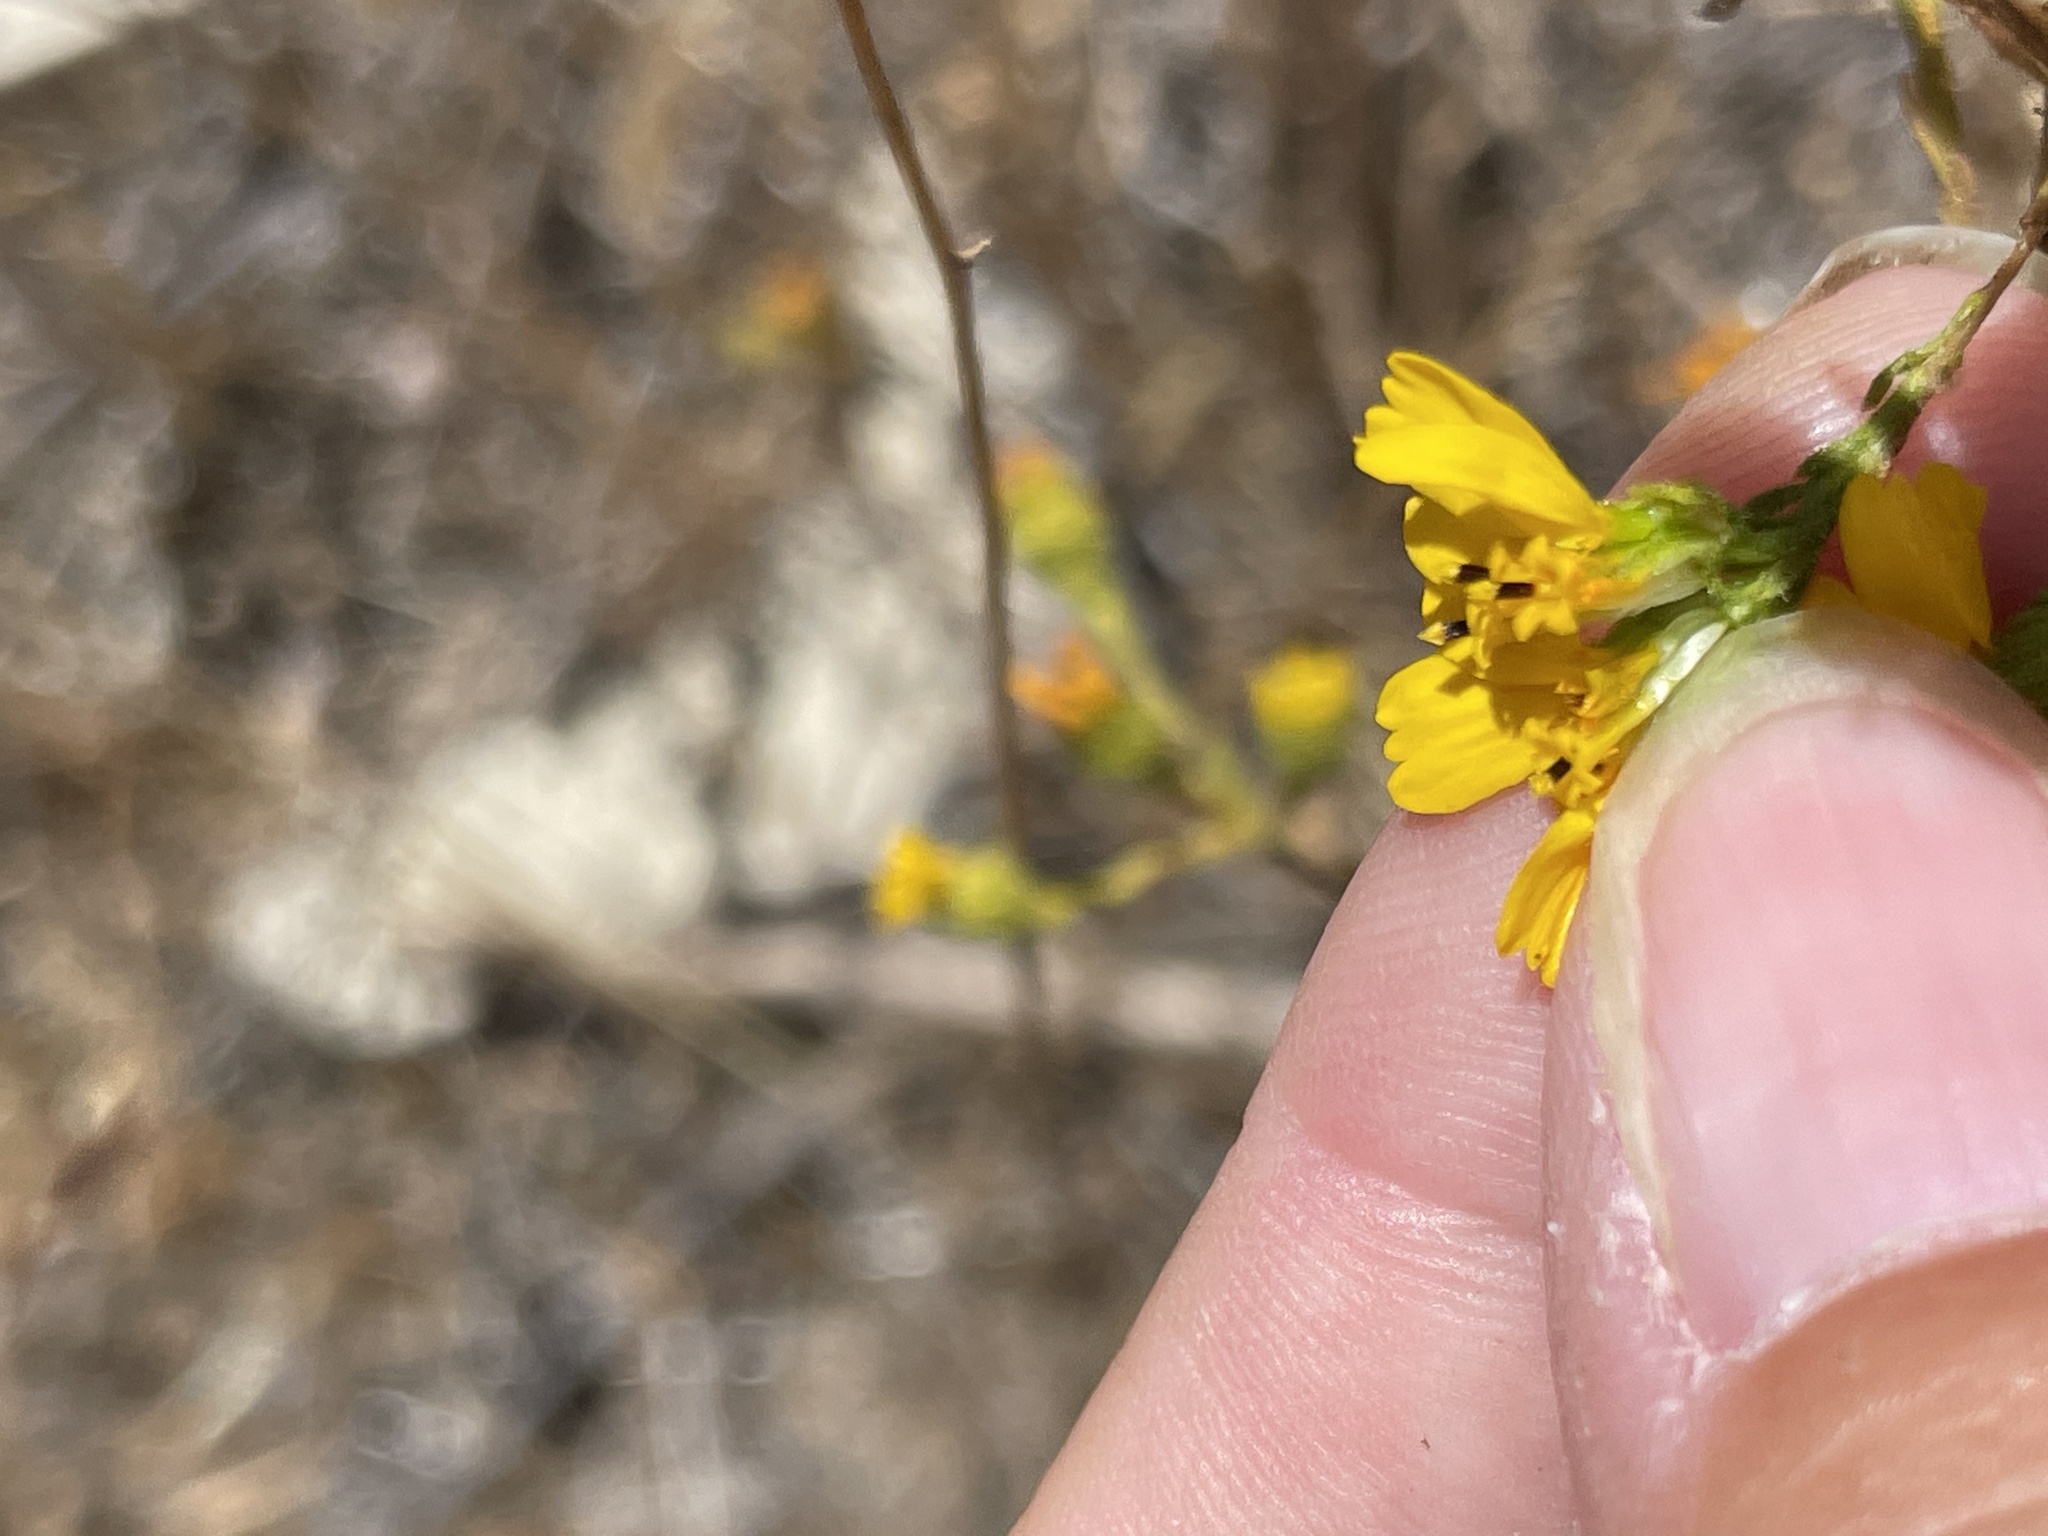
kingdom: Plantae
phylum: Tracheophyta
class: Magnoliopsida
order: Asterales
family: Asteraceae
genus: Deinandra
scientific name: Deinandra conjugens
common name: Otay tarplant
